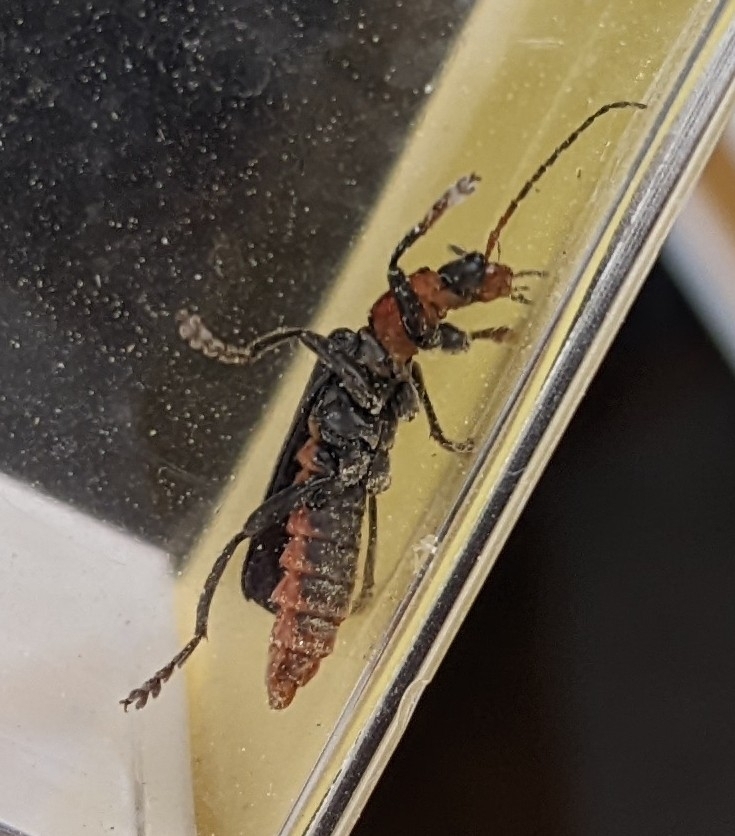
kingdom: Animalia
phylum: Arthropoda
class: Insecta
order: Coleoptera
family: Cantharidae
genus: Cantharis
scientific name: Cantharis fusca
